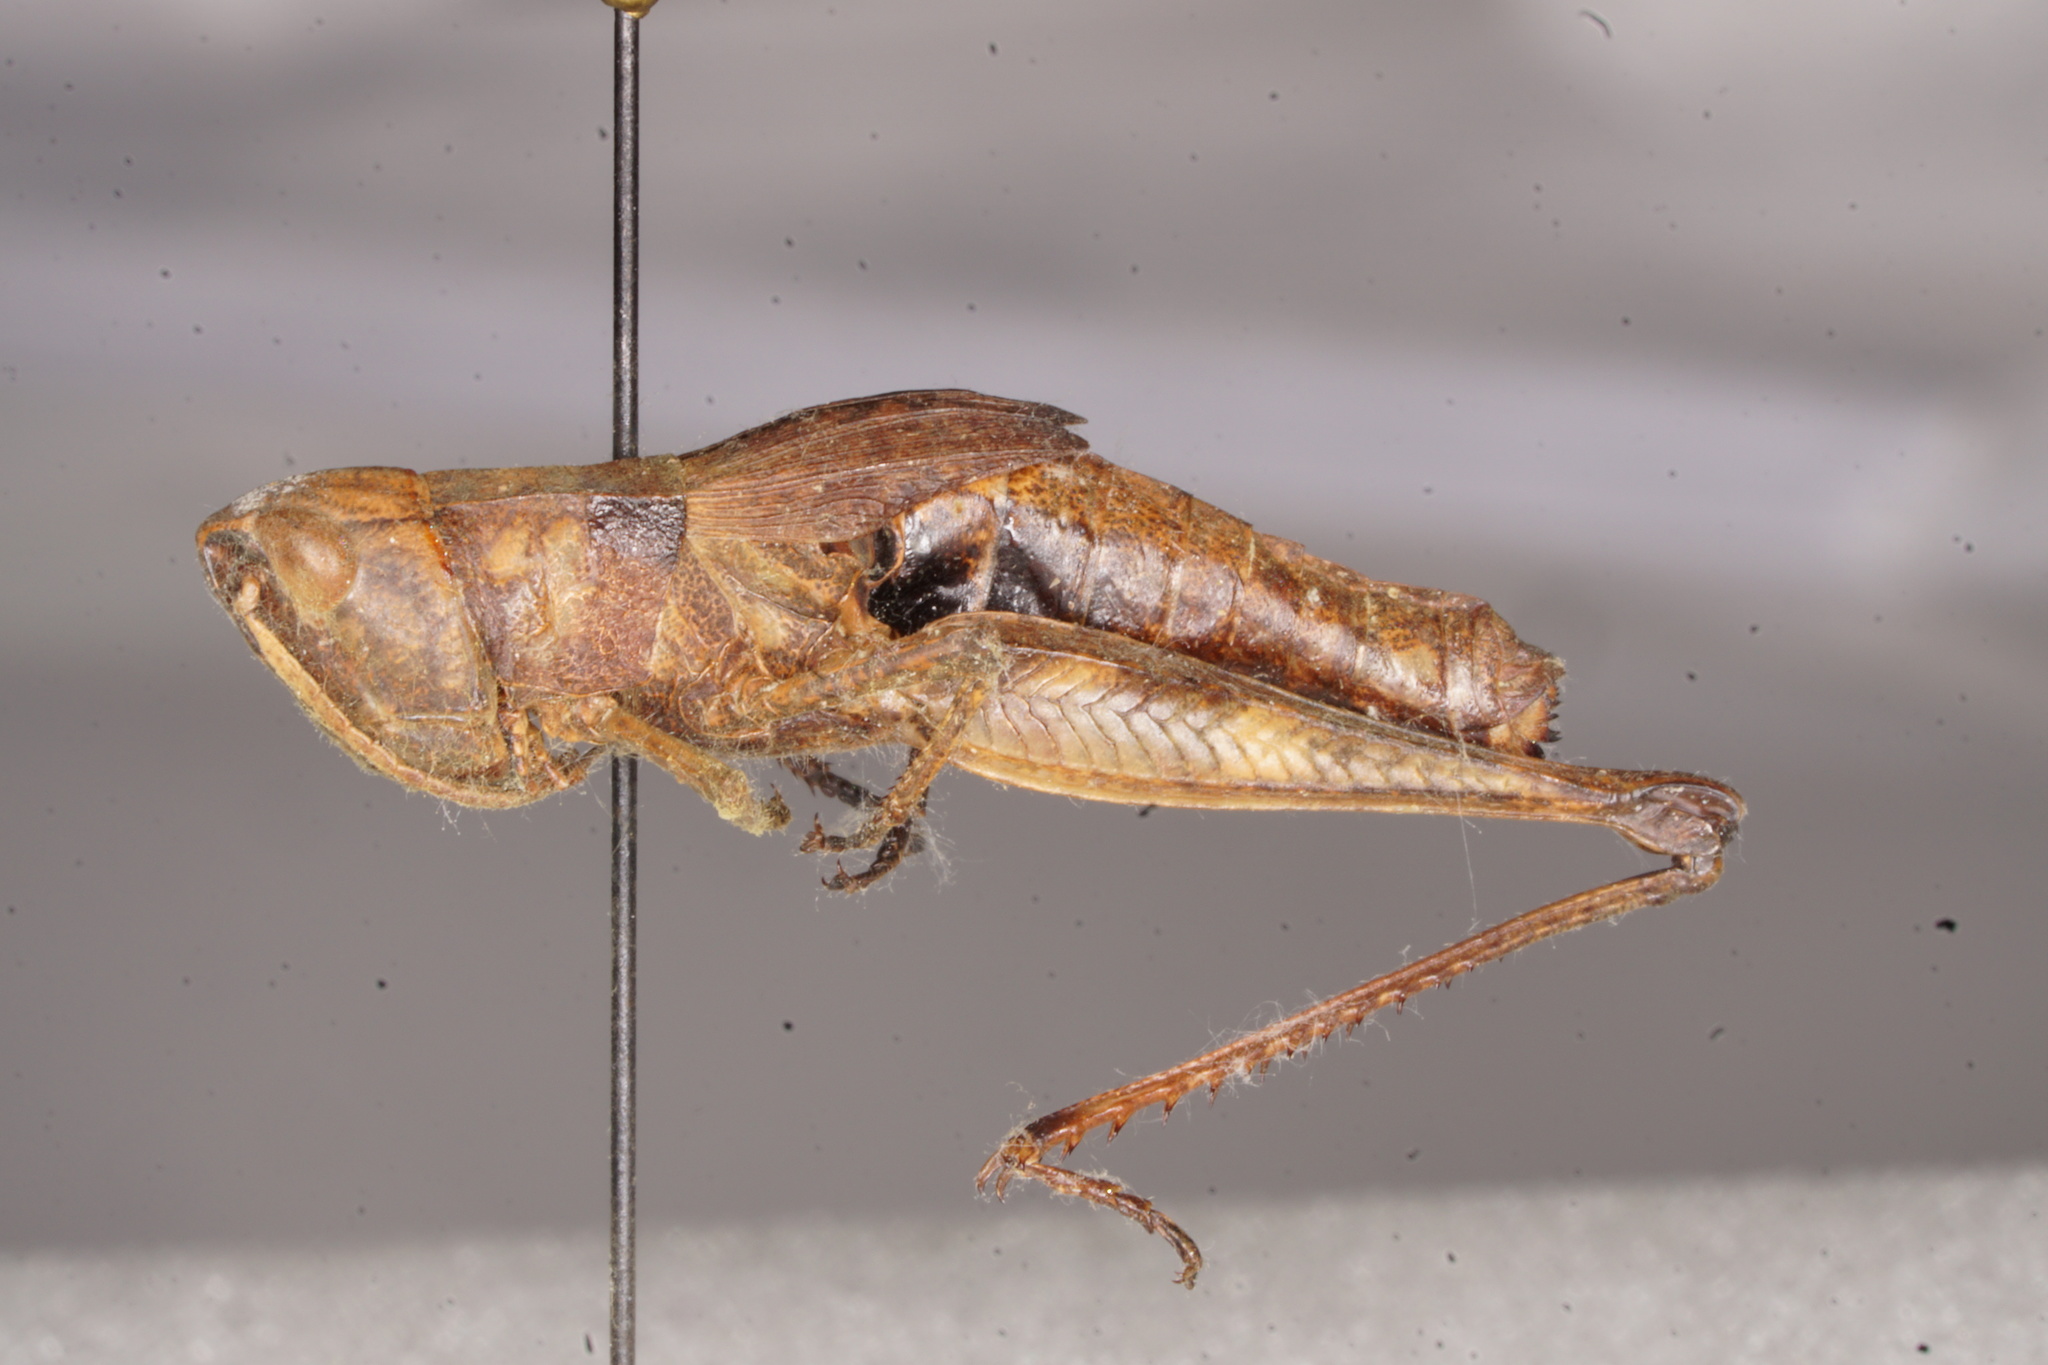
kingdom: Animalia
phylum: Arthropoda
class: Insecta
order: Orthoptera
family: Acrididae
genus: Chloealtis
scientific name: Chloealtis conspersa
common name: Sprinkled broad-winged grasshopper
